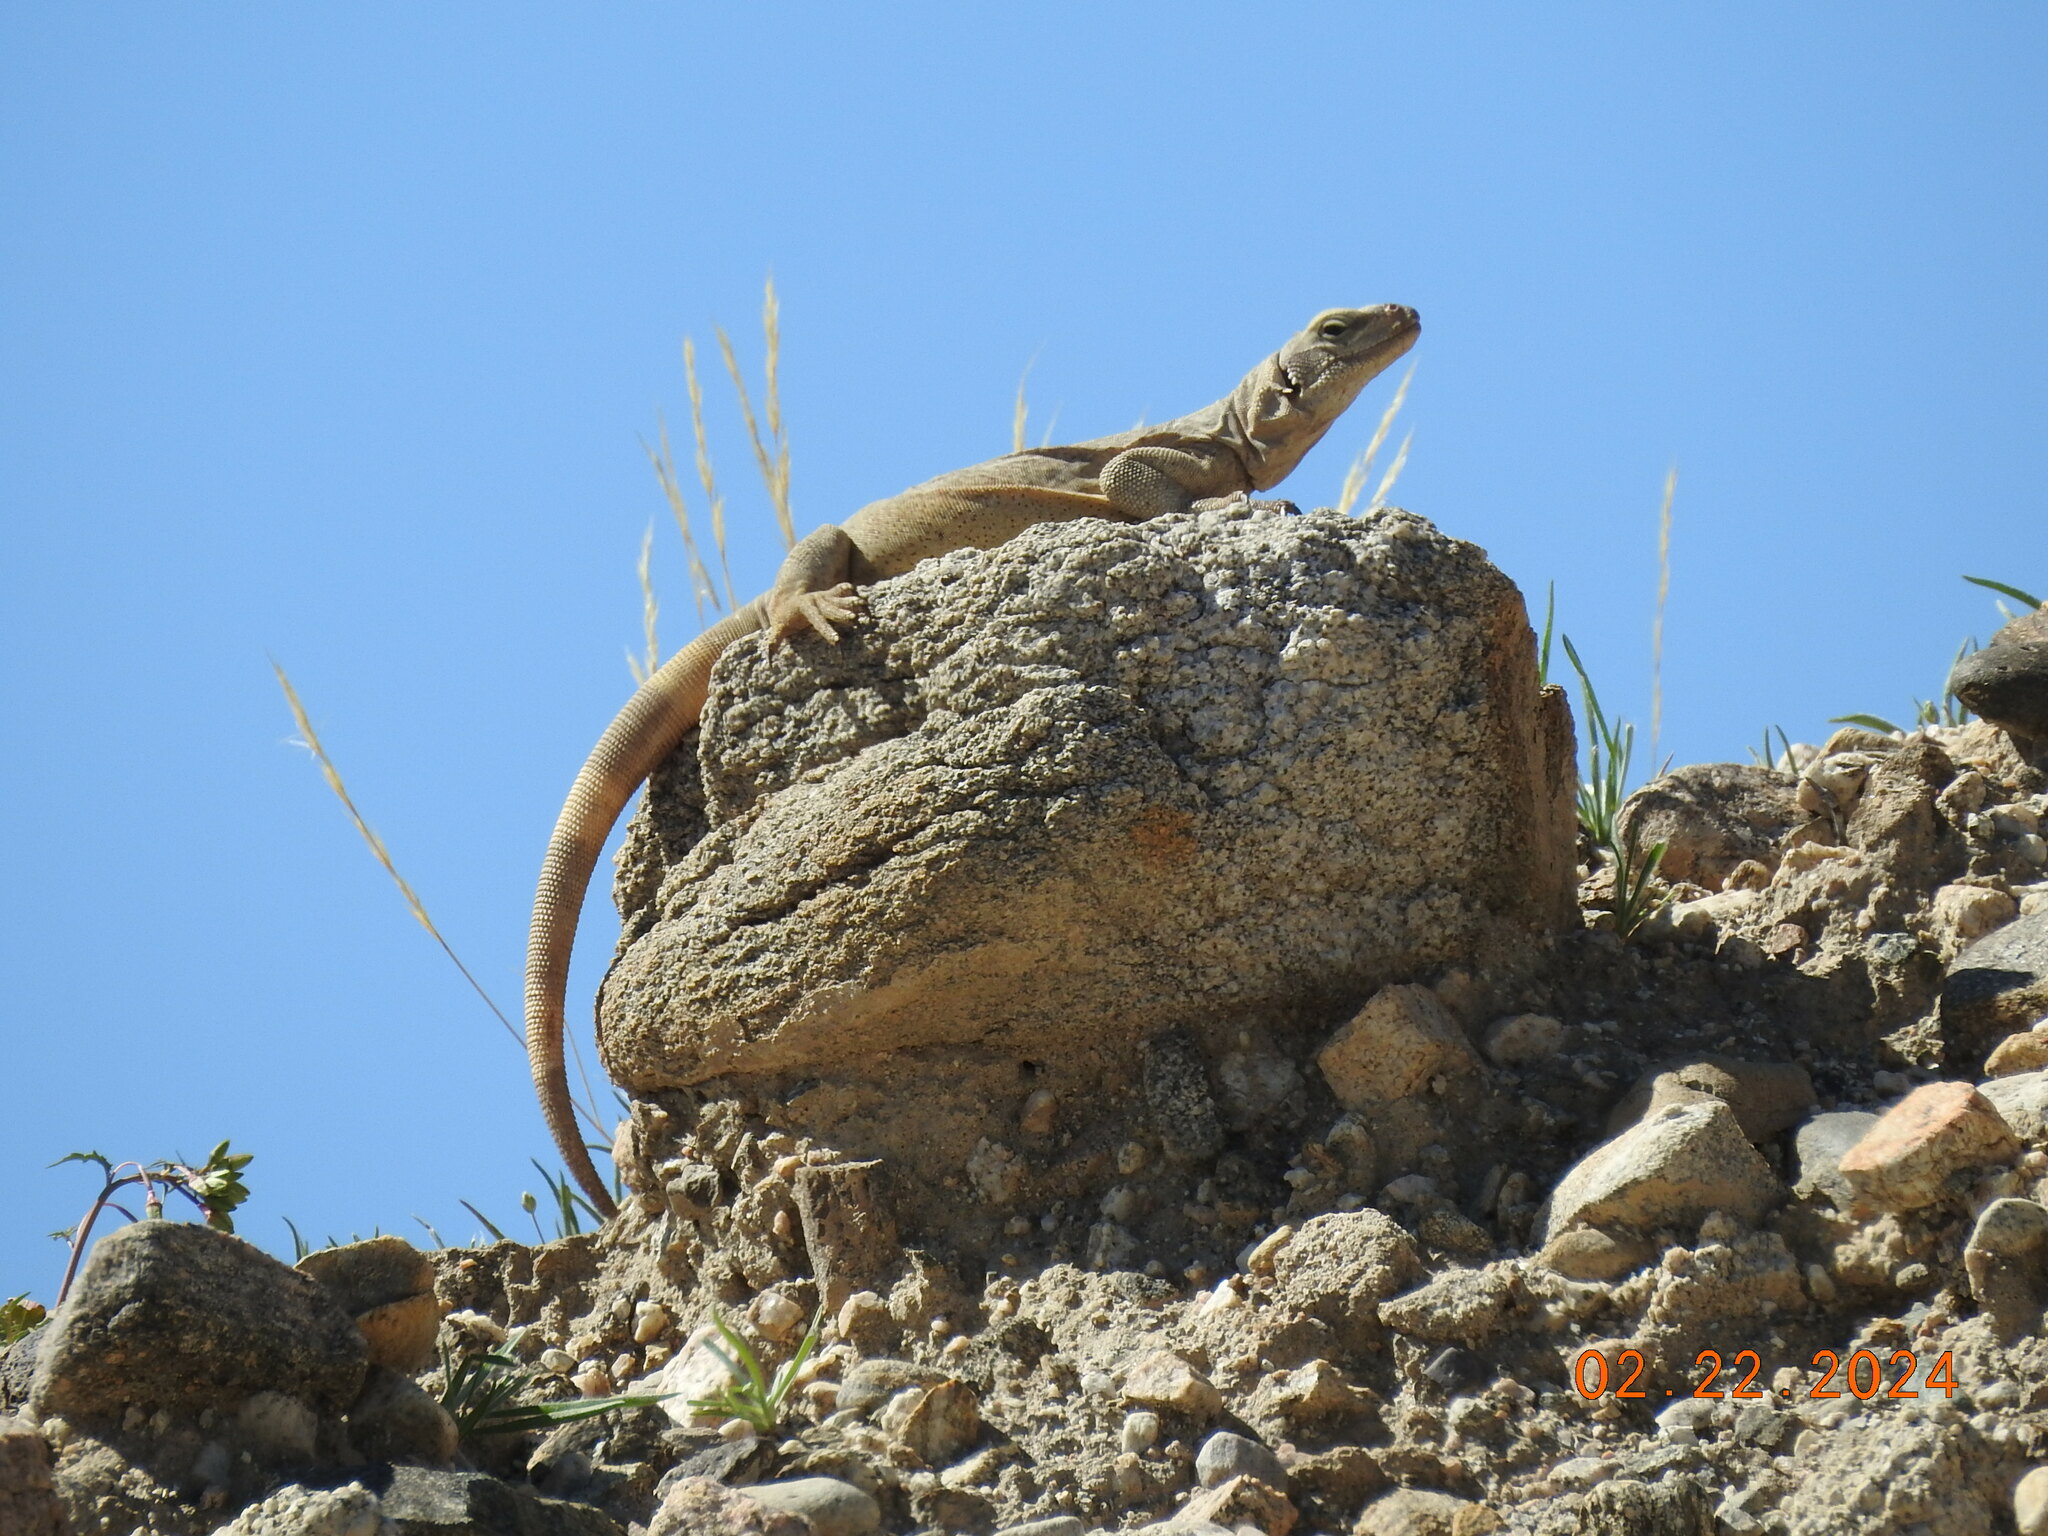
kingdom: Animalia
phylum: Chordata
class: Squamata
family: Iguanidae
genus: Sauromalus
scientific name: Sauromalus ater
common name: Northern chuckwalla
